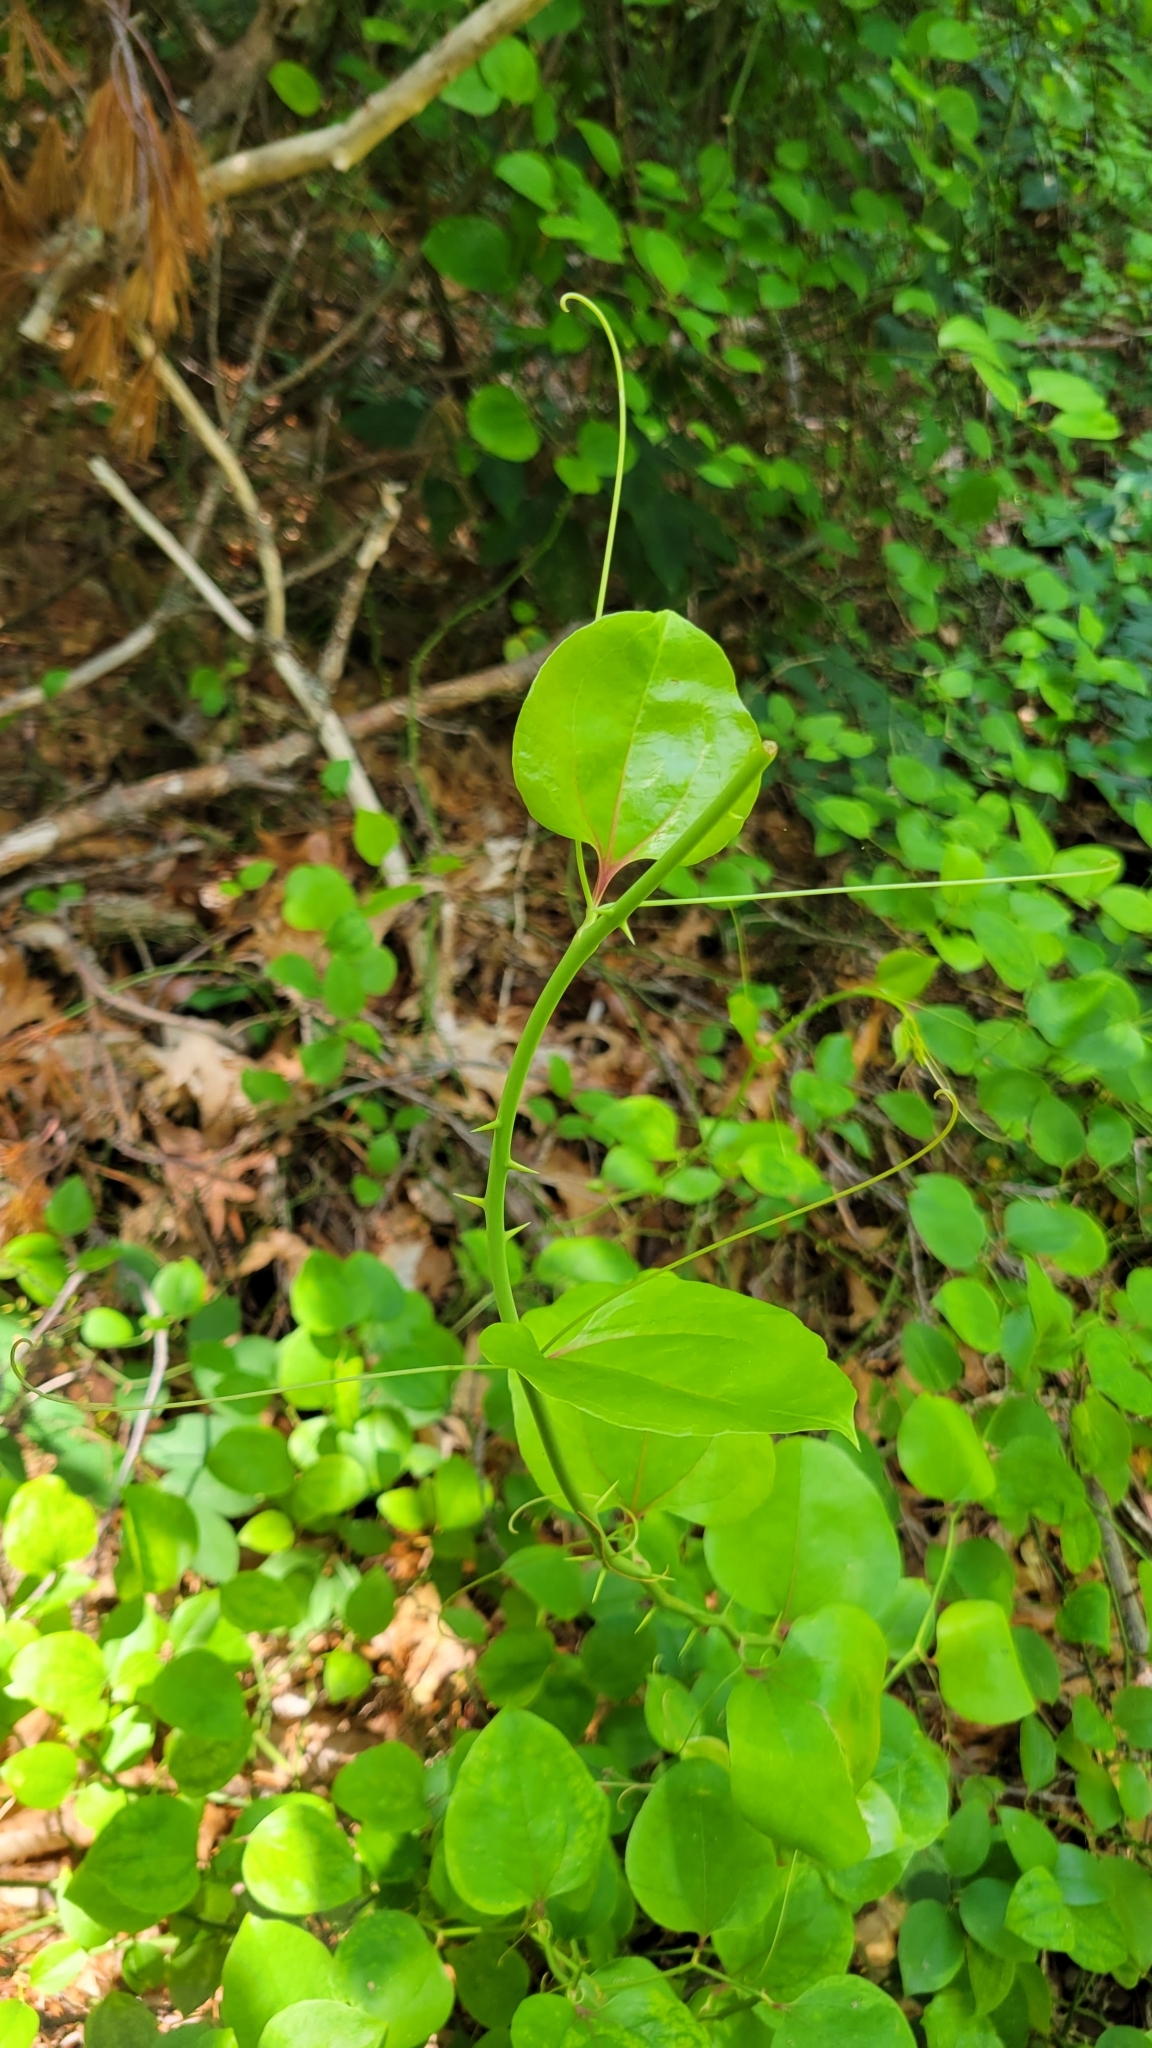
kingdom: Plantae
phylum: Tracheophyta
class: Liliopsida
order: Liliales
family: Smilacaceae
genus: Smilax
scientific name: Smilax rotundifolia
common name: Bullbriar
